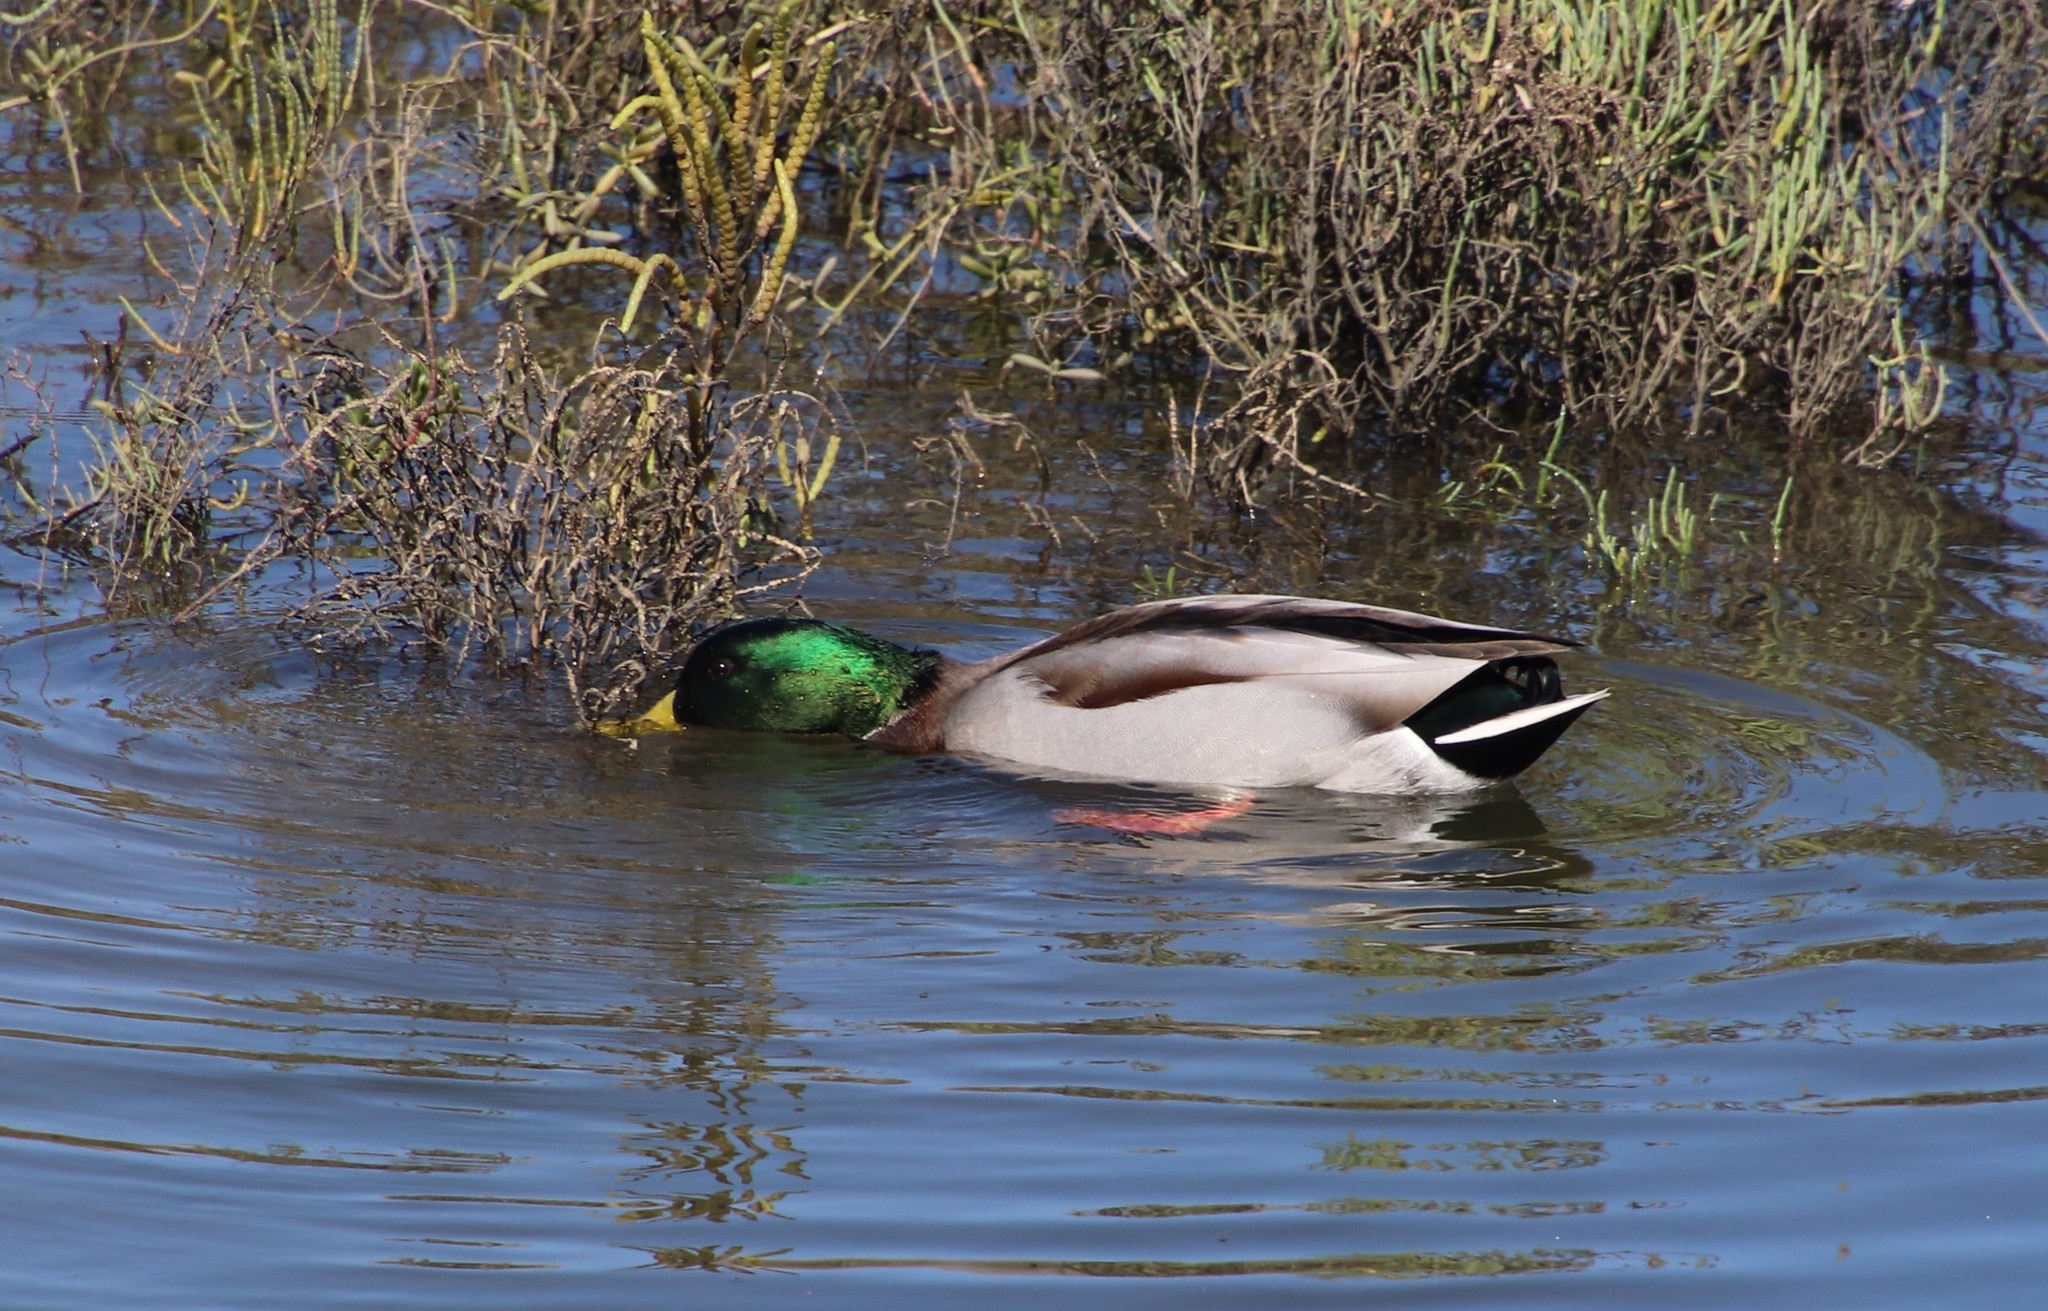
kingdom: Animalia
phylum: Chordata
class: Aves
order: Anseriformes
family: Anatidae
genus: Anas
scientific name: Anas platyrhynchos
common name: Mallard
